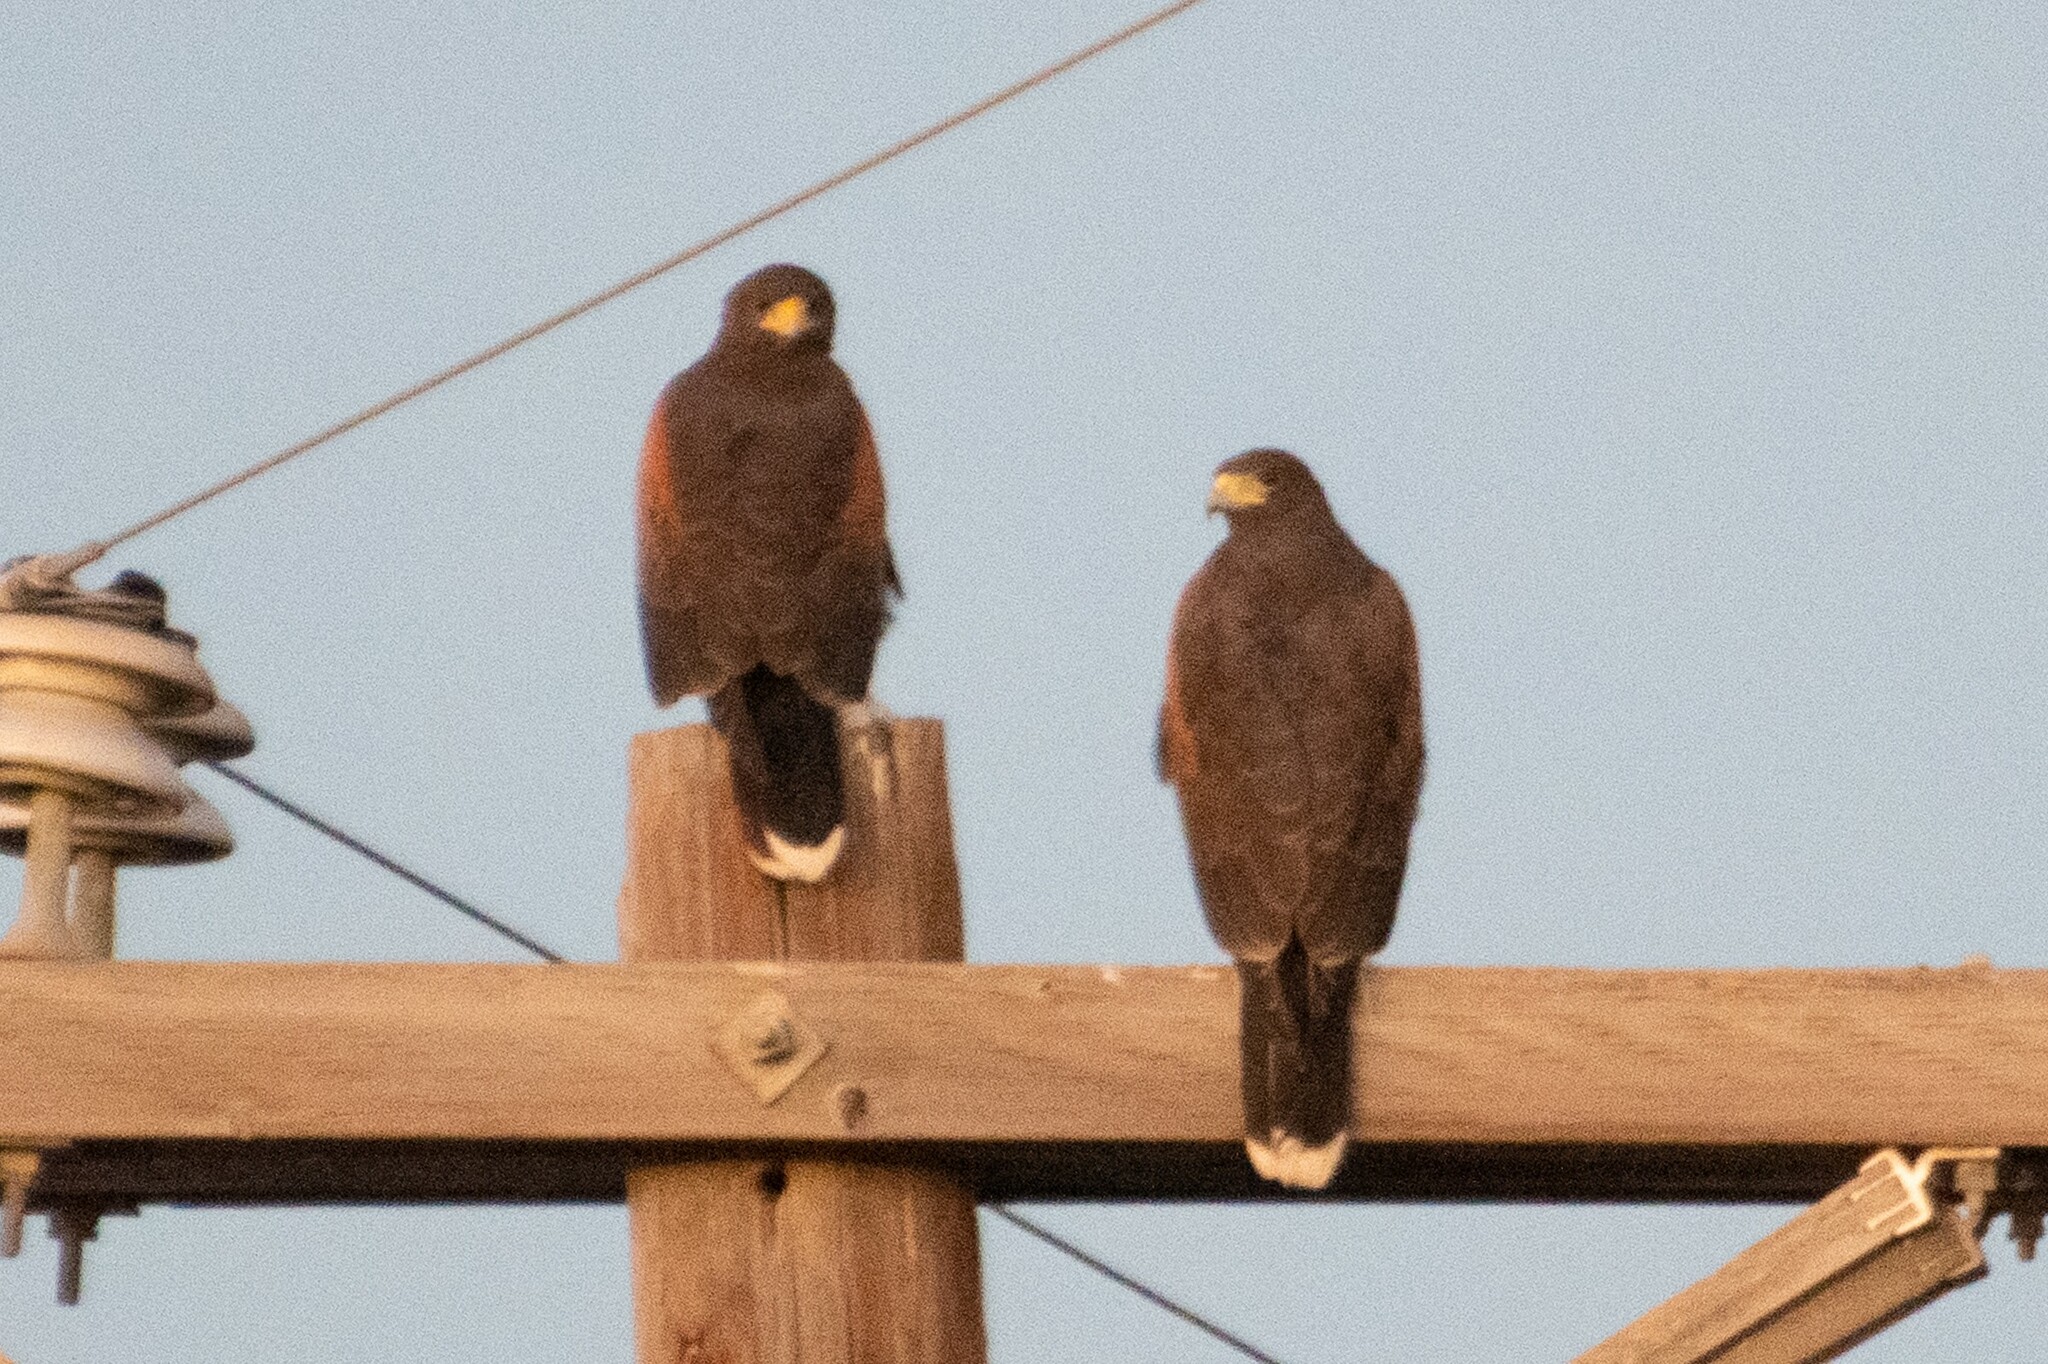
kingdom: Animalia
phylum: Chordata
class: Aves
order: Accipitriformes
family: Accipitridae
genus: Parabuteo
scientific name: Parabuteo unicinctus
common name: Harris's hawk
